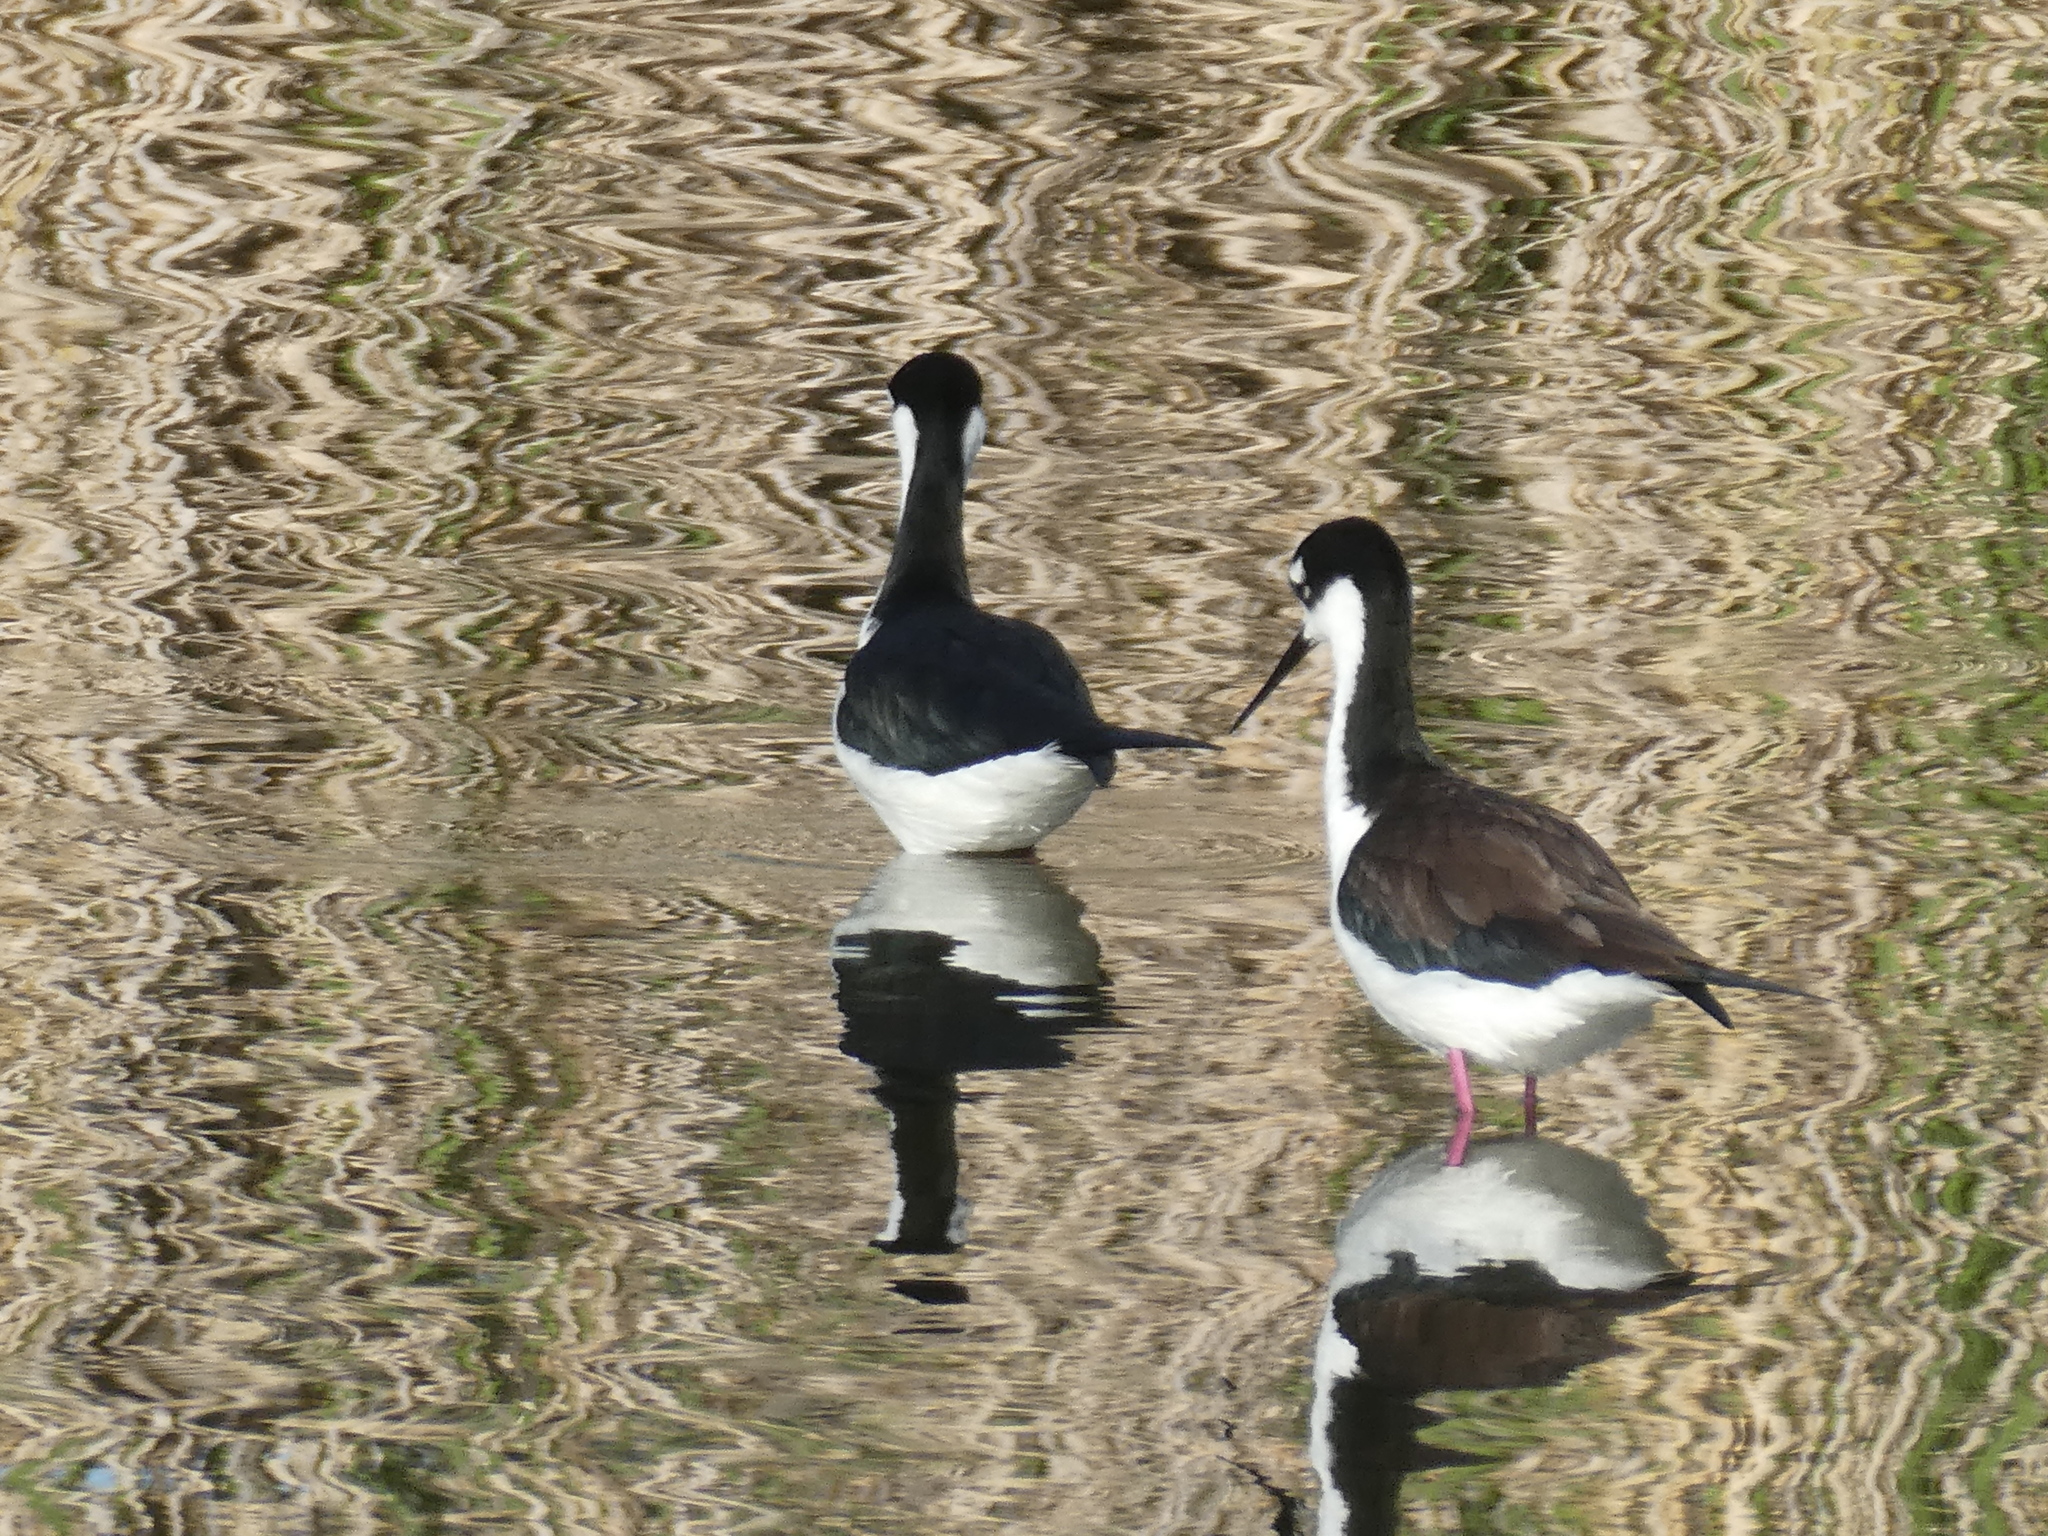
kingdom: Animalia
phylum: Chordata
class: Aves
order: Charadriiformes
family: Recurvirostridae
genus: Himantopus
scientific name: Himantopus mexicanus
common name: Black-necked stilt
